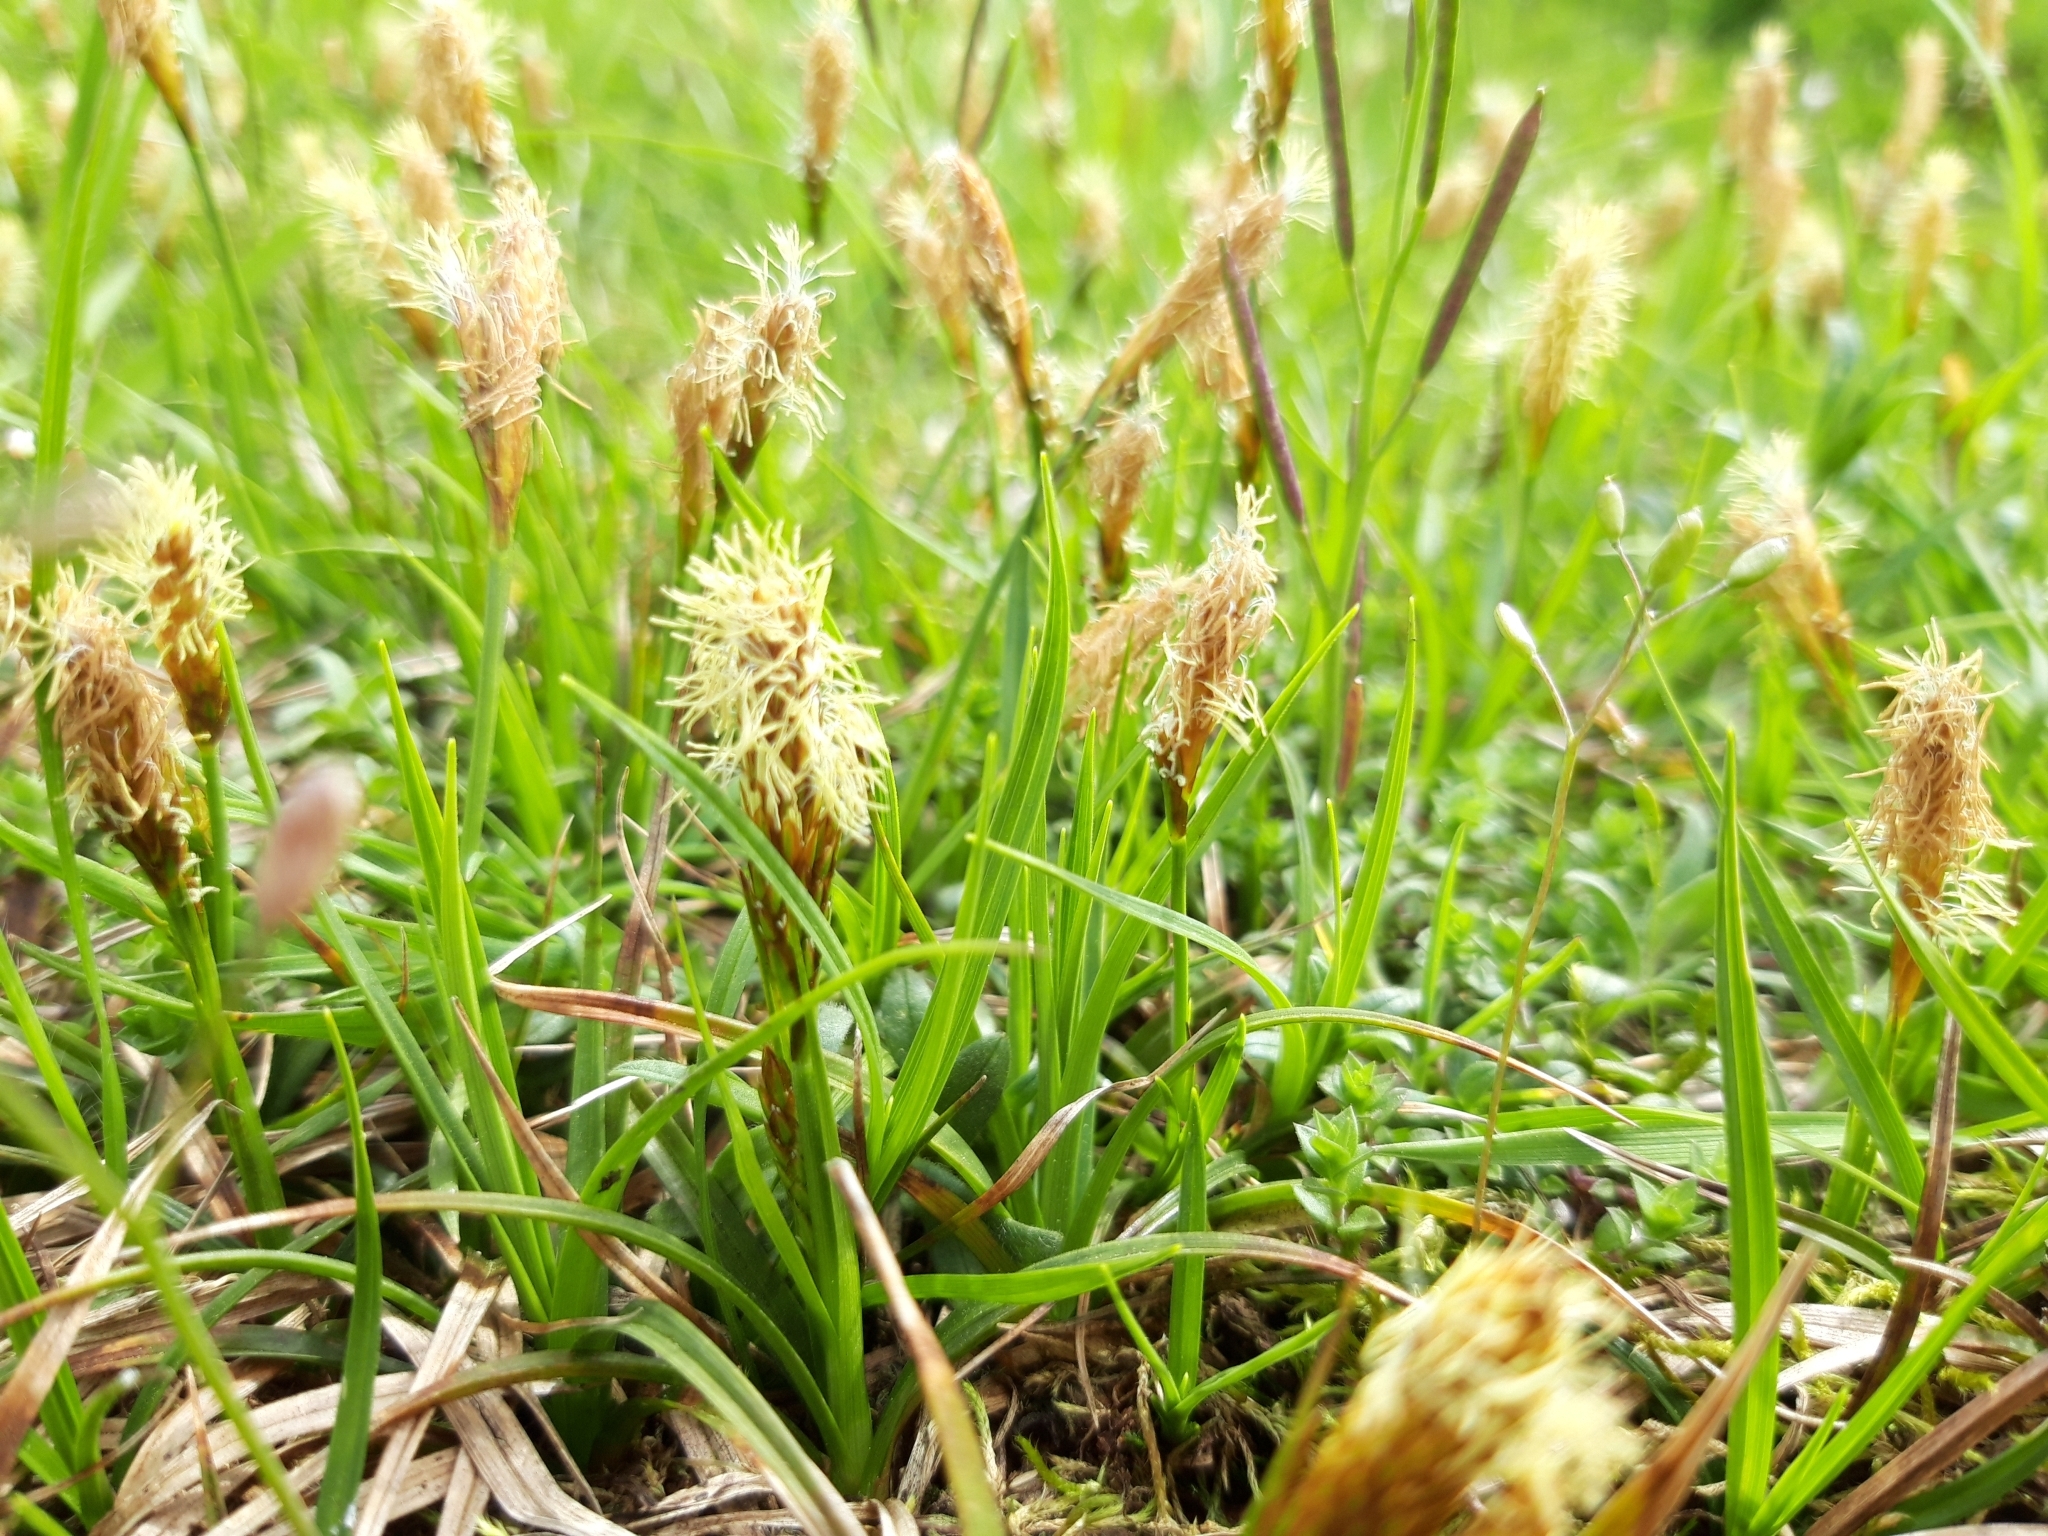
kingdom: Plantae
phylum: Tracheophyta
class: Liliopsida
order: Poales
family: Cyperaceae
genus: Carex
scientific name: Carex caryophyllea
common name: Spring sedge
